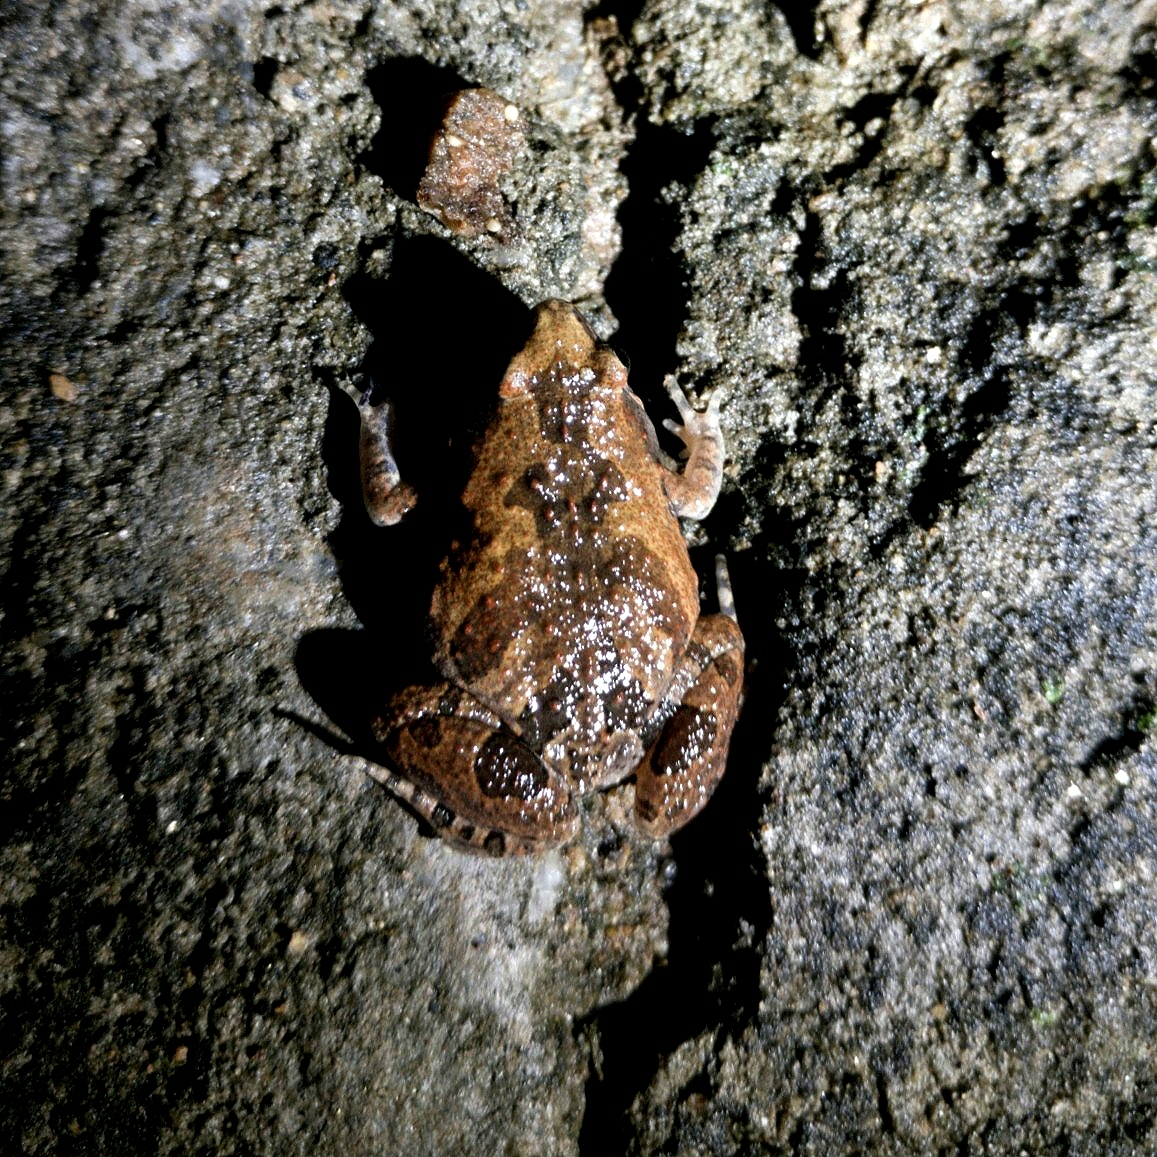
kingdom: Animalia
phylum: Chordata
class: Amphibia
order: Anura
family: Microhylidae
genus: Microhyla
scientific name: Microhyla ornata
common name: Ant frog
